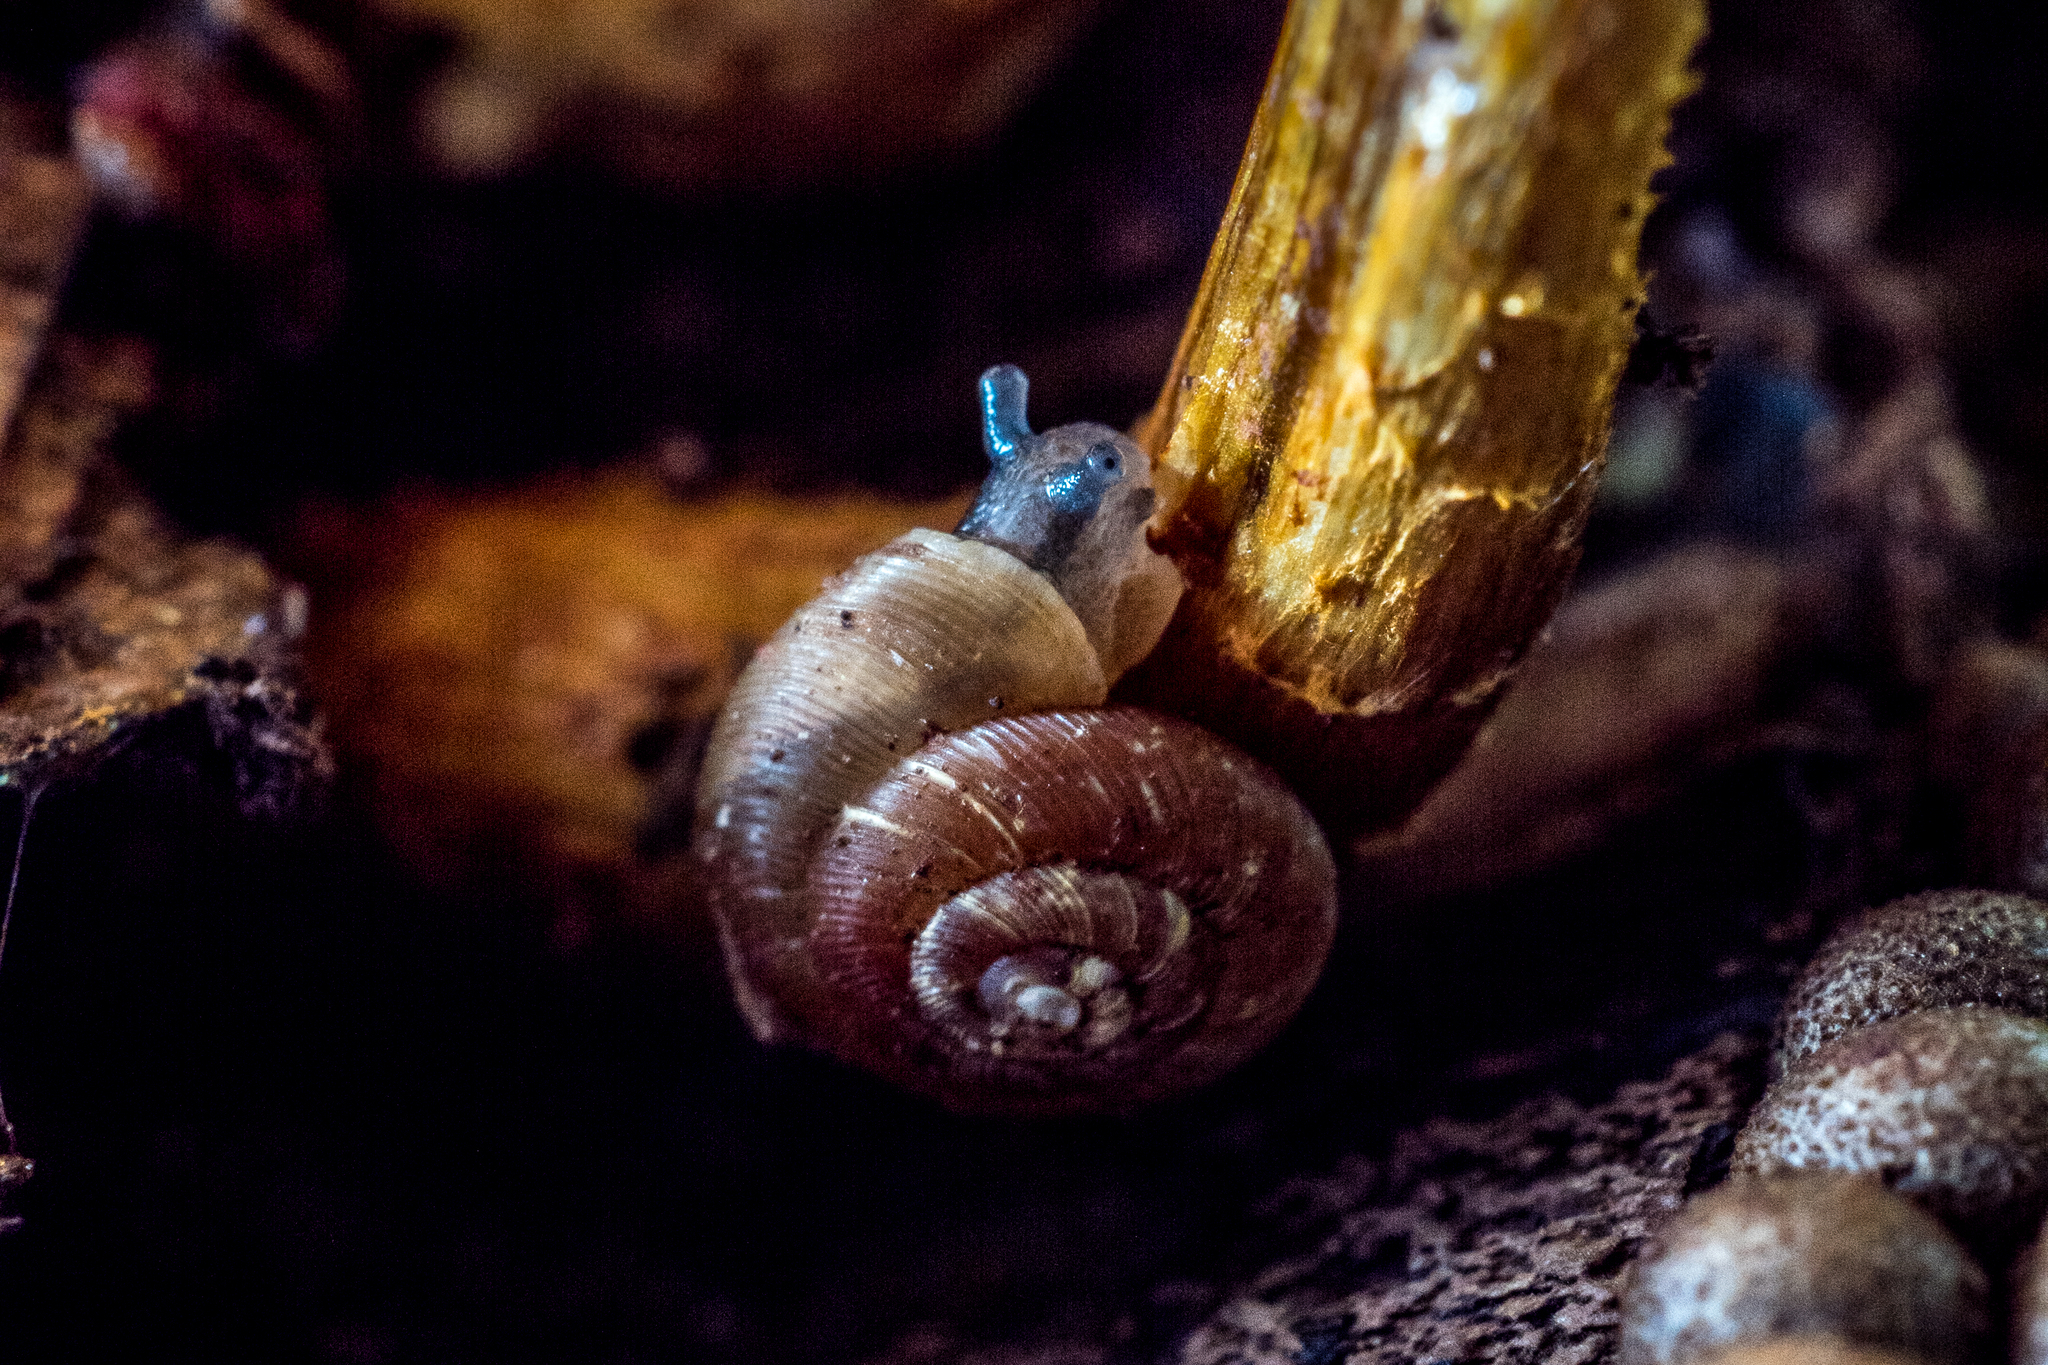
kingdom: Animalia
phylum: Mollusca
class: Gastropoda
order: Stylommatophora
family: Discidae
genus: Discus
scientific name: Discus ruderatus
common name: Brown disc snail
